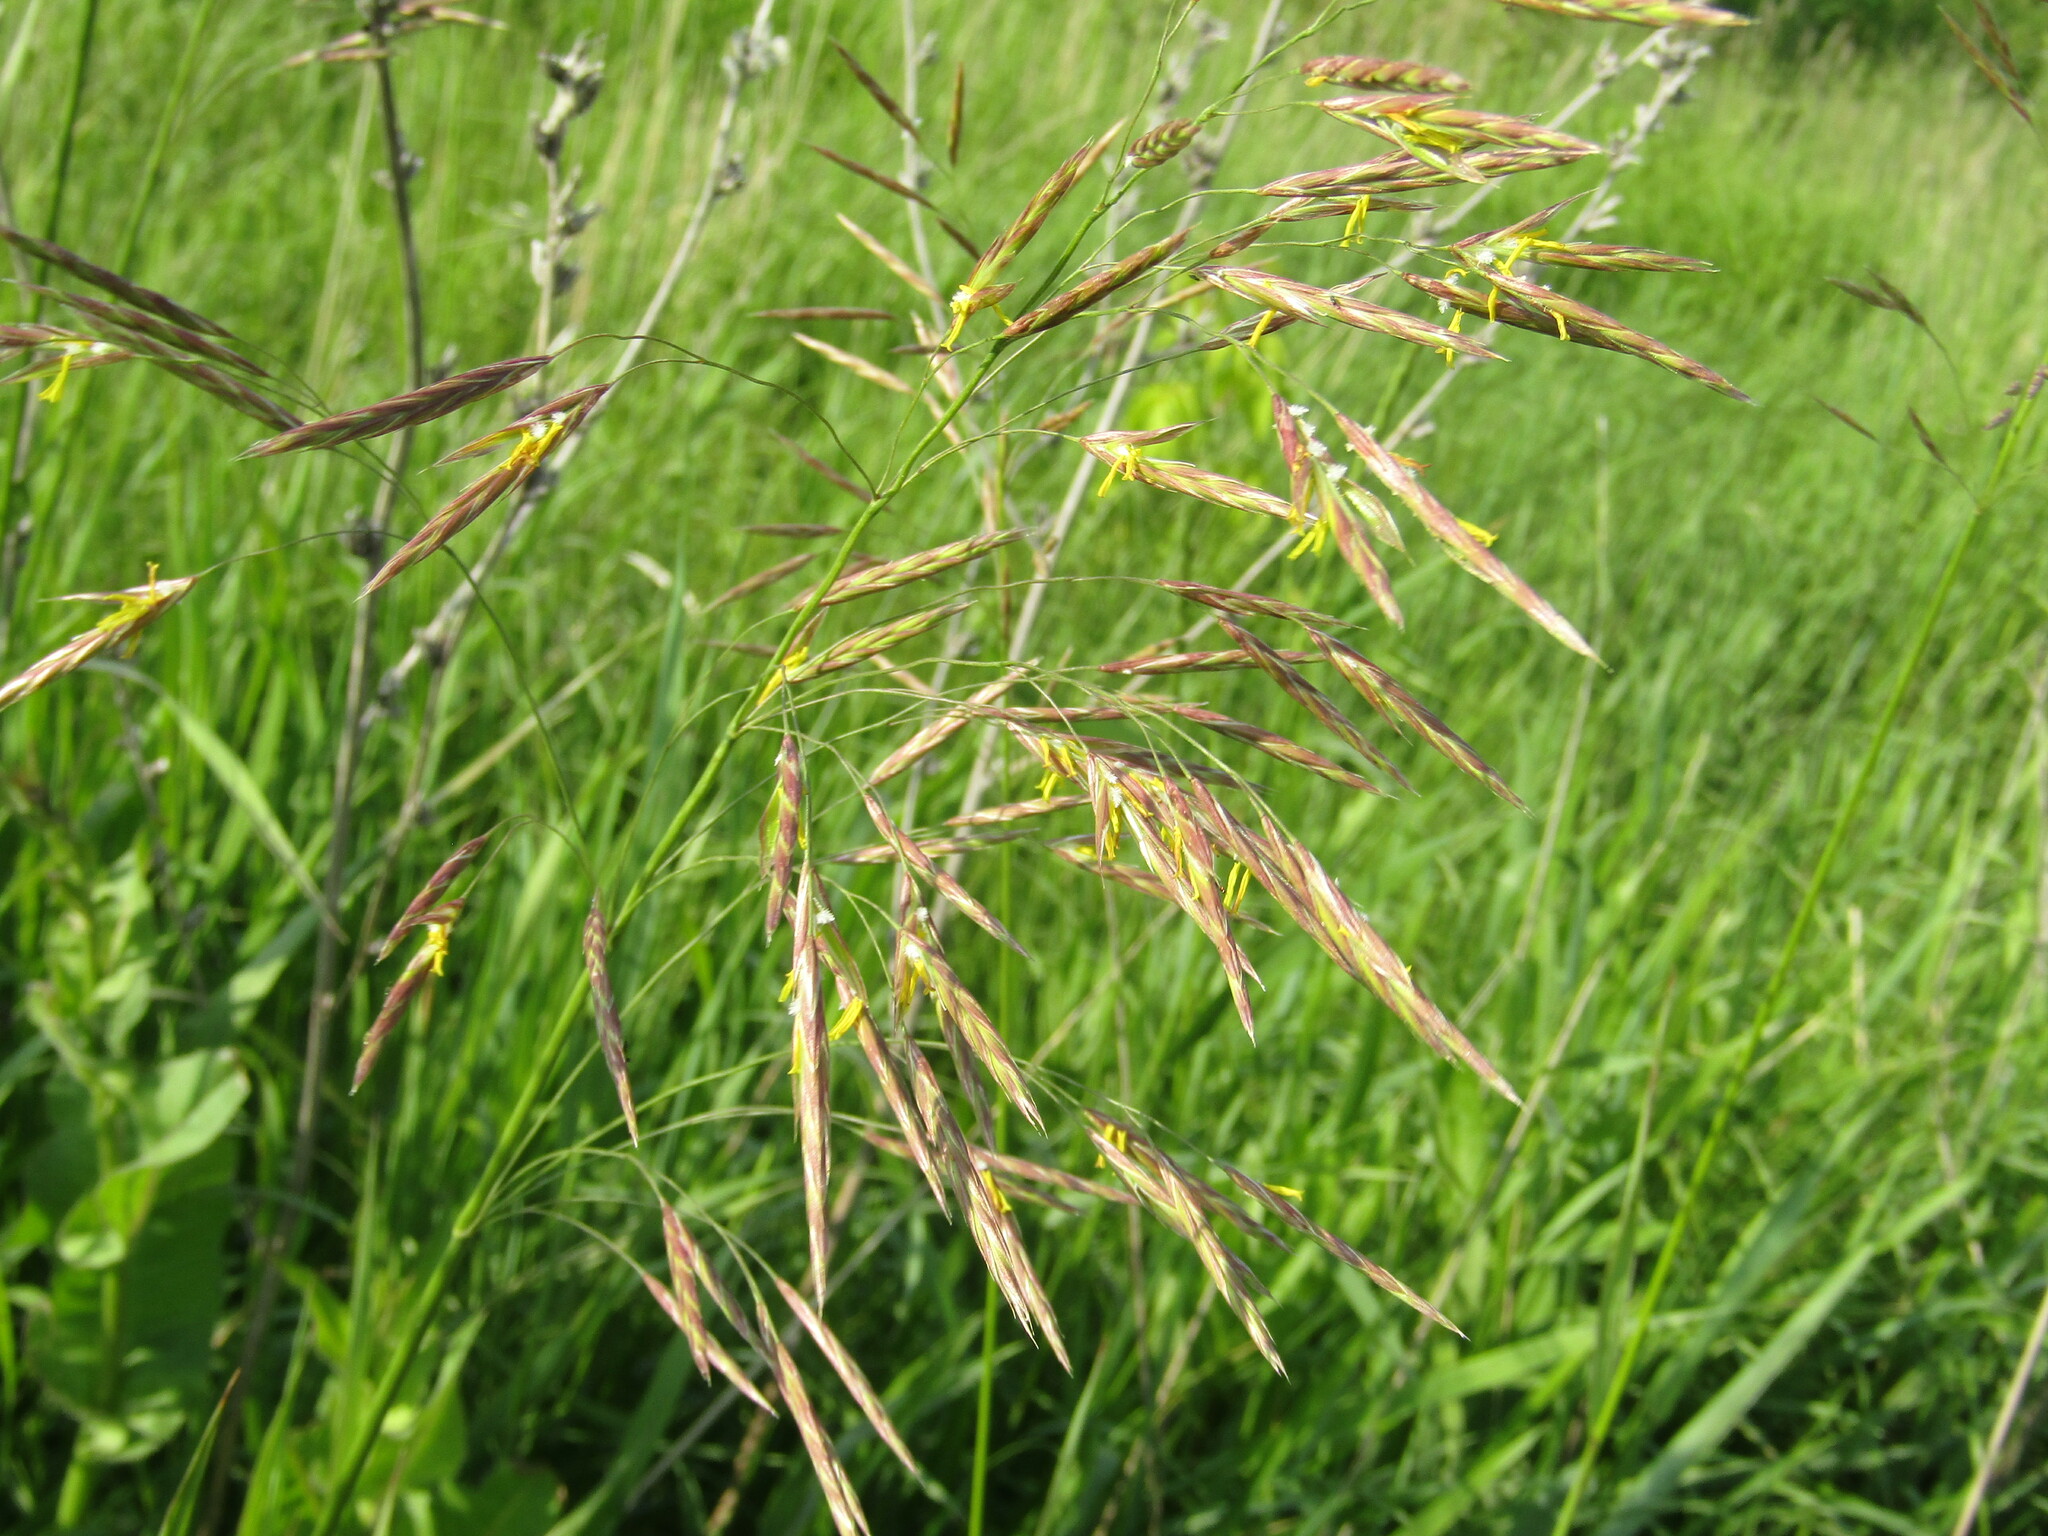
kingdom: Plantae
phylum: Tracheophyta
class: Liliopsida
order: Poales
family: Poaceae
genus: Bromus
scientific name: Bromus inermis
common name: Smooth brome
